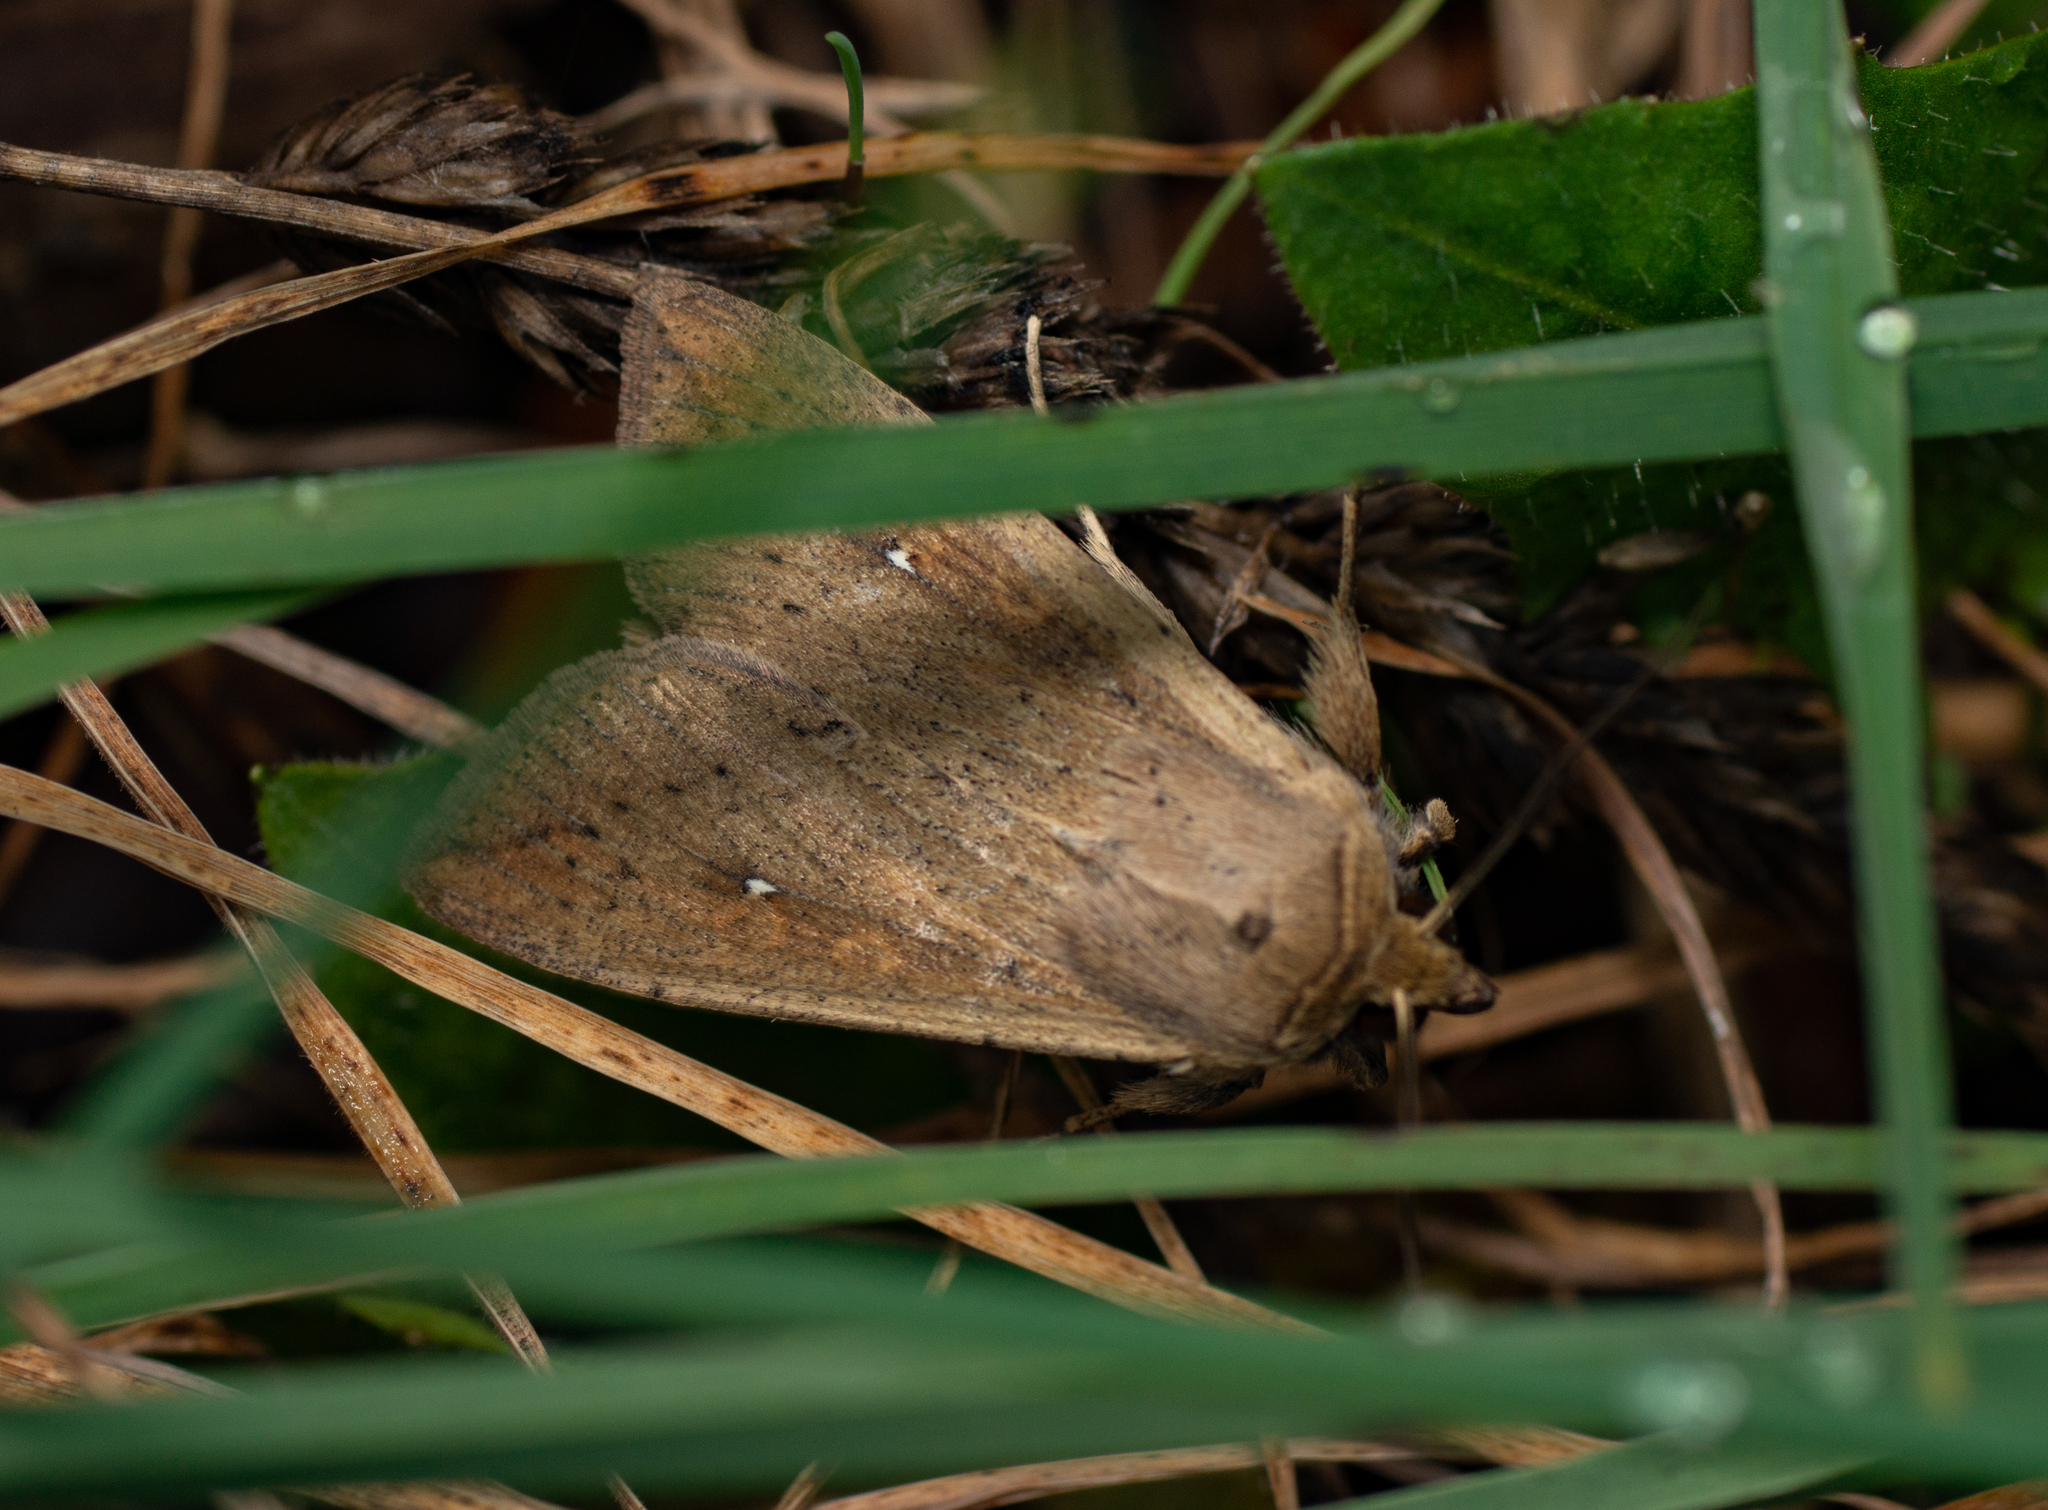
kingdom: Animalia
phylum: Arthropoda
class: Insecta
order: Lepidoptera
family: Noctuidae
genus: Mythimna
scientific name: Mythimna unipuncta
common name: White-speck
